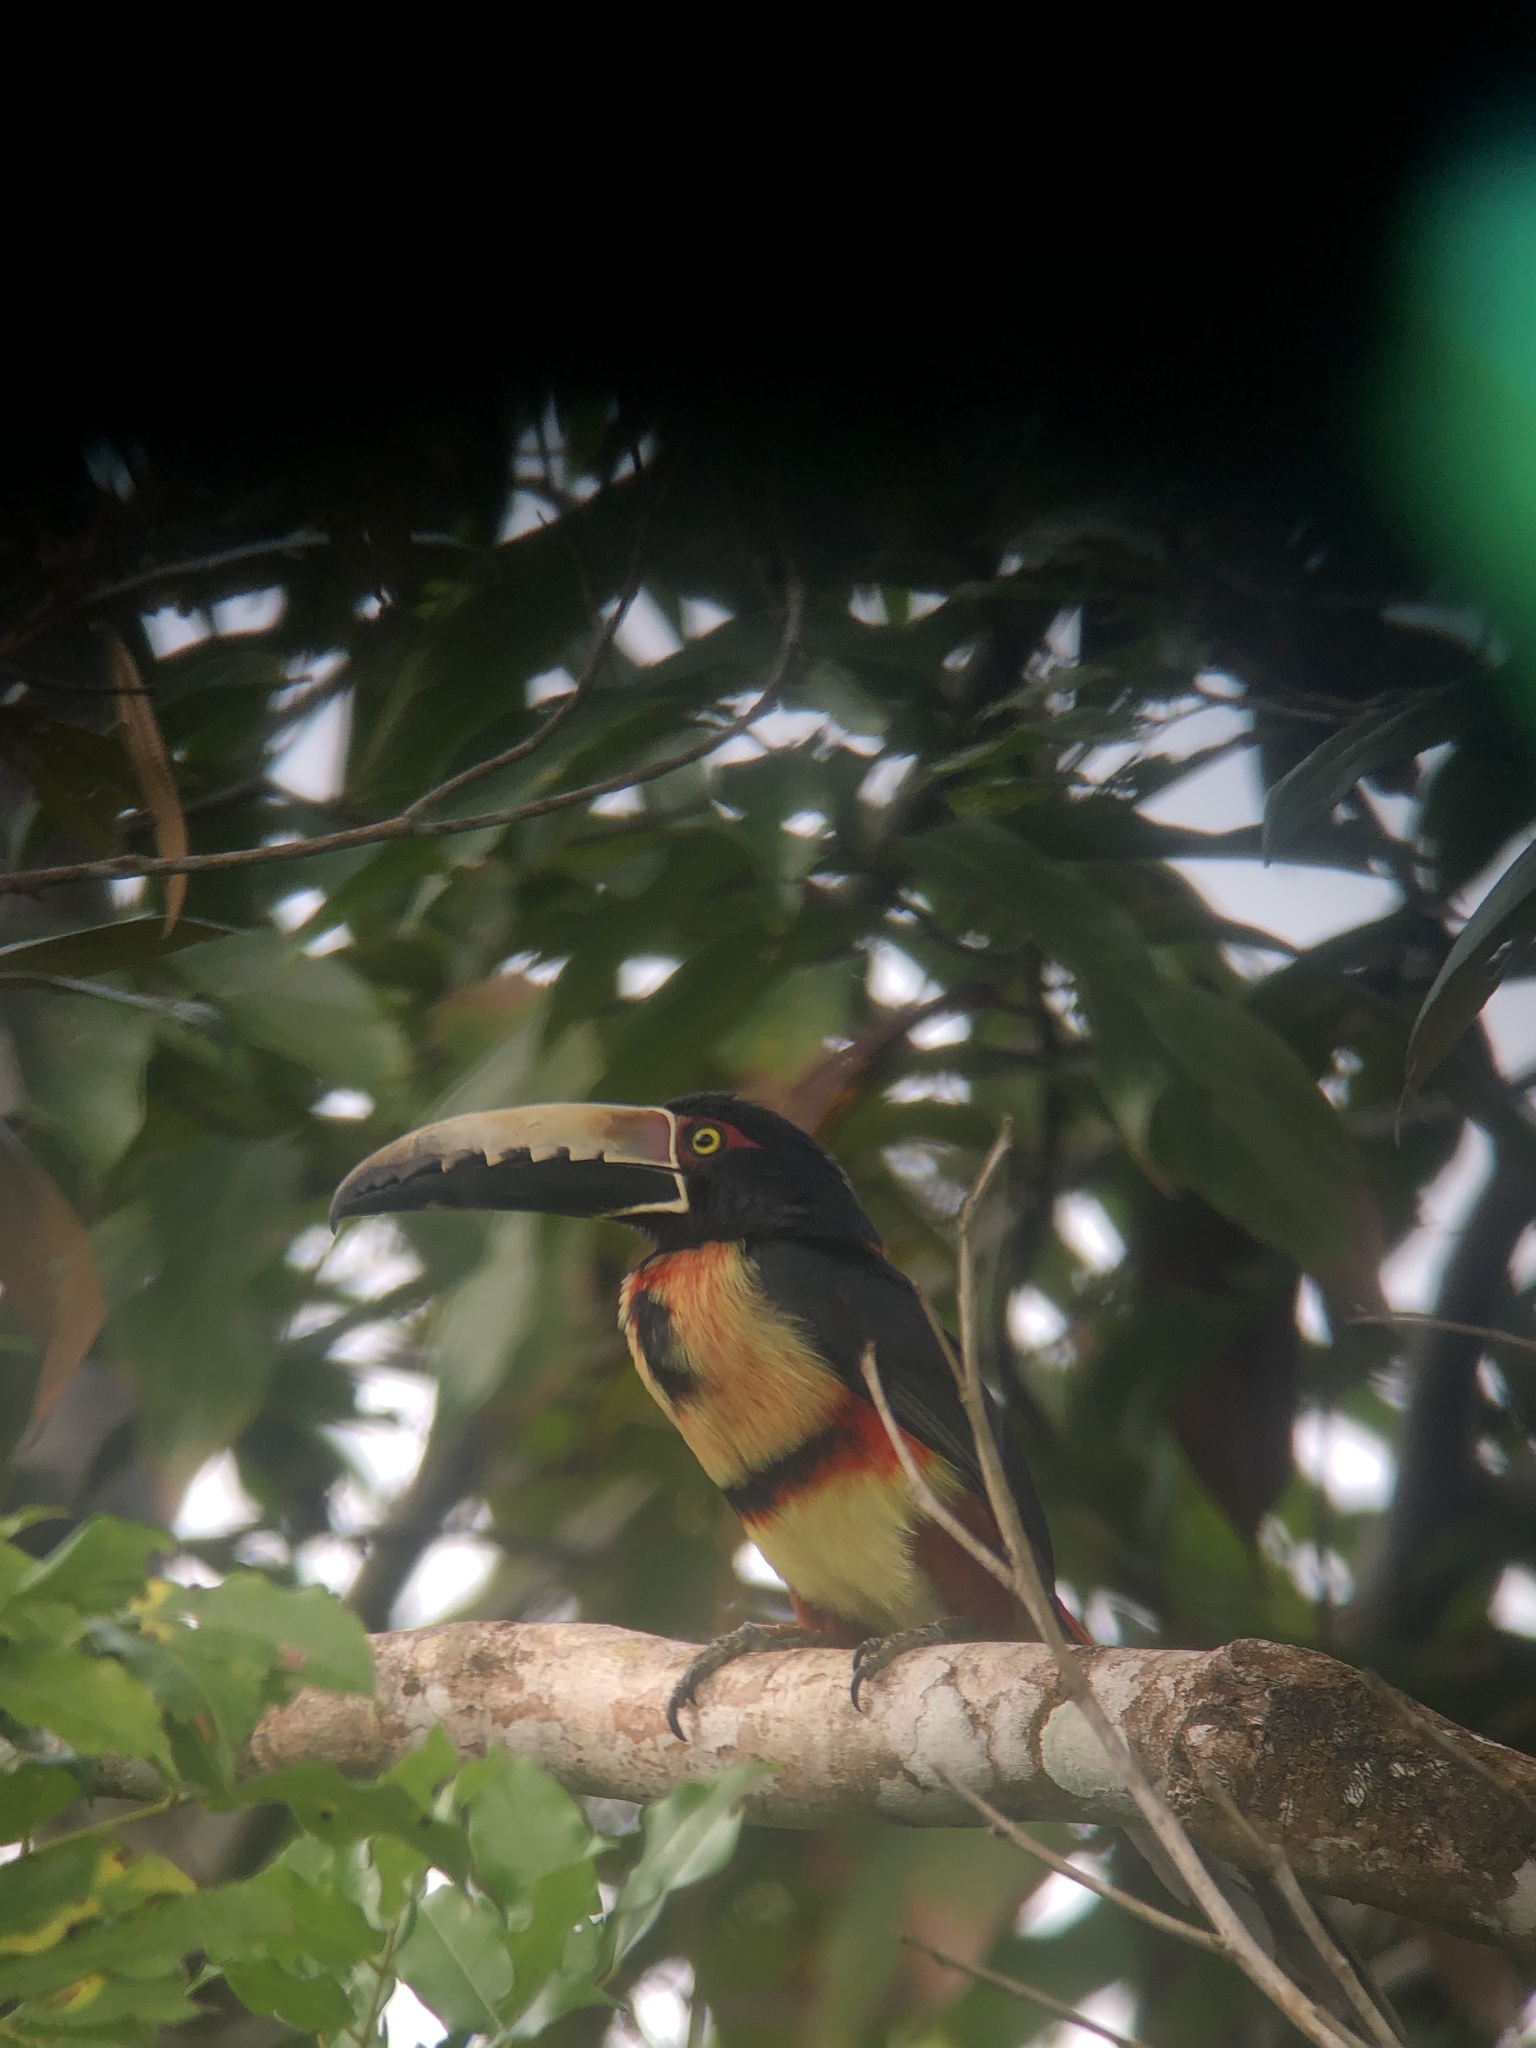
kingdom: Animalia
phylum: Chordata
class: Aves
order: Piciformes
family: Ramphastidae
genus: Pteroglossus
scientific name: Pteroglossus torquatus
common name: Collared aracari
